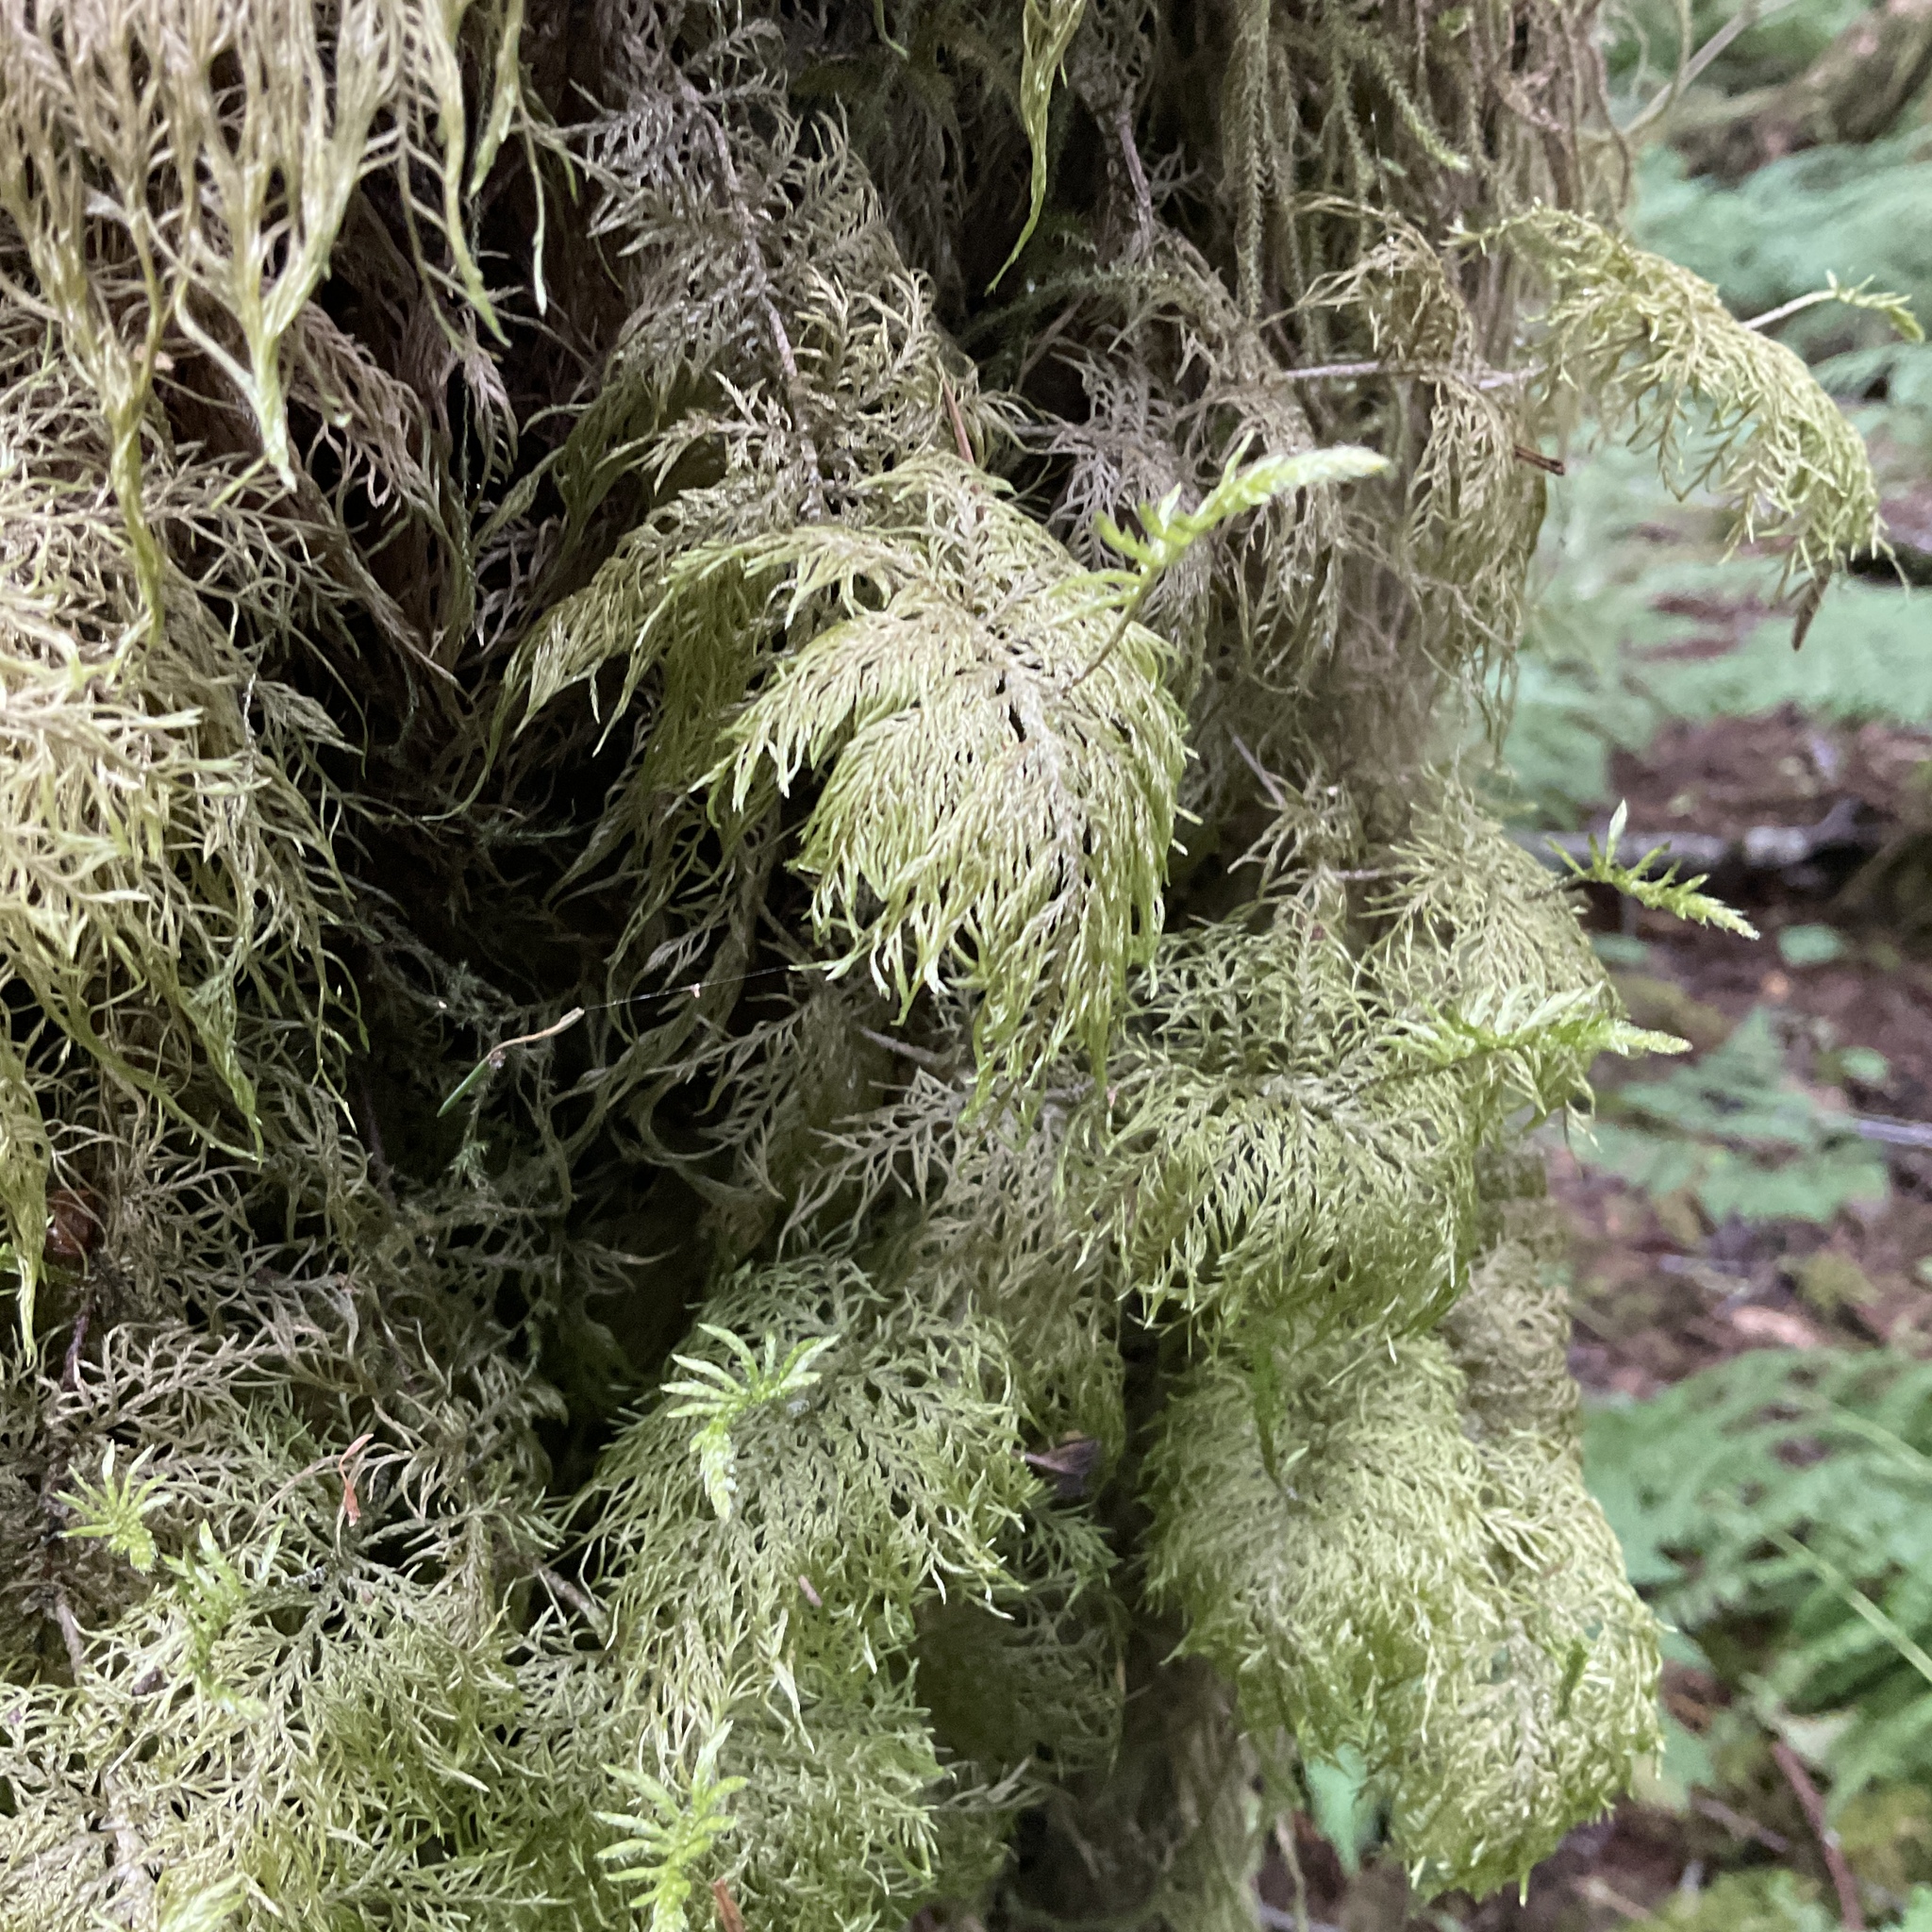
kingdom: Plantae
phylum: Bryophyta
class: Bryopsida
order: Hypnales
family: Hylocomiaceae
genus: Hylocomium
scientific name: Hylocomium splendens
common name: Stairstep moss
